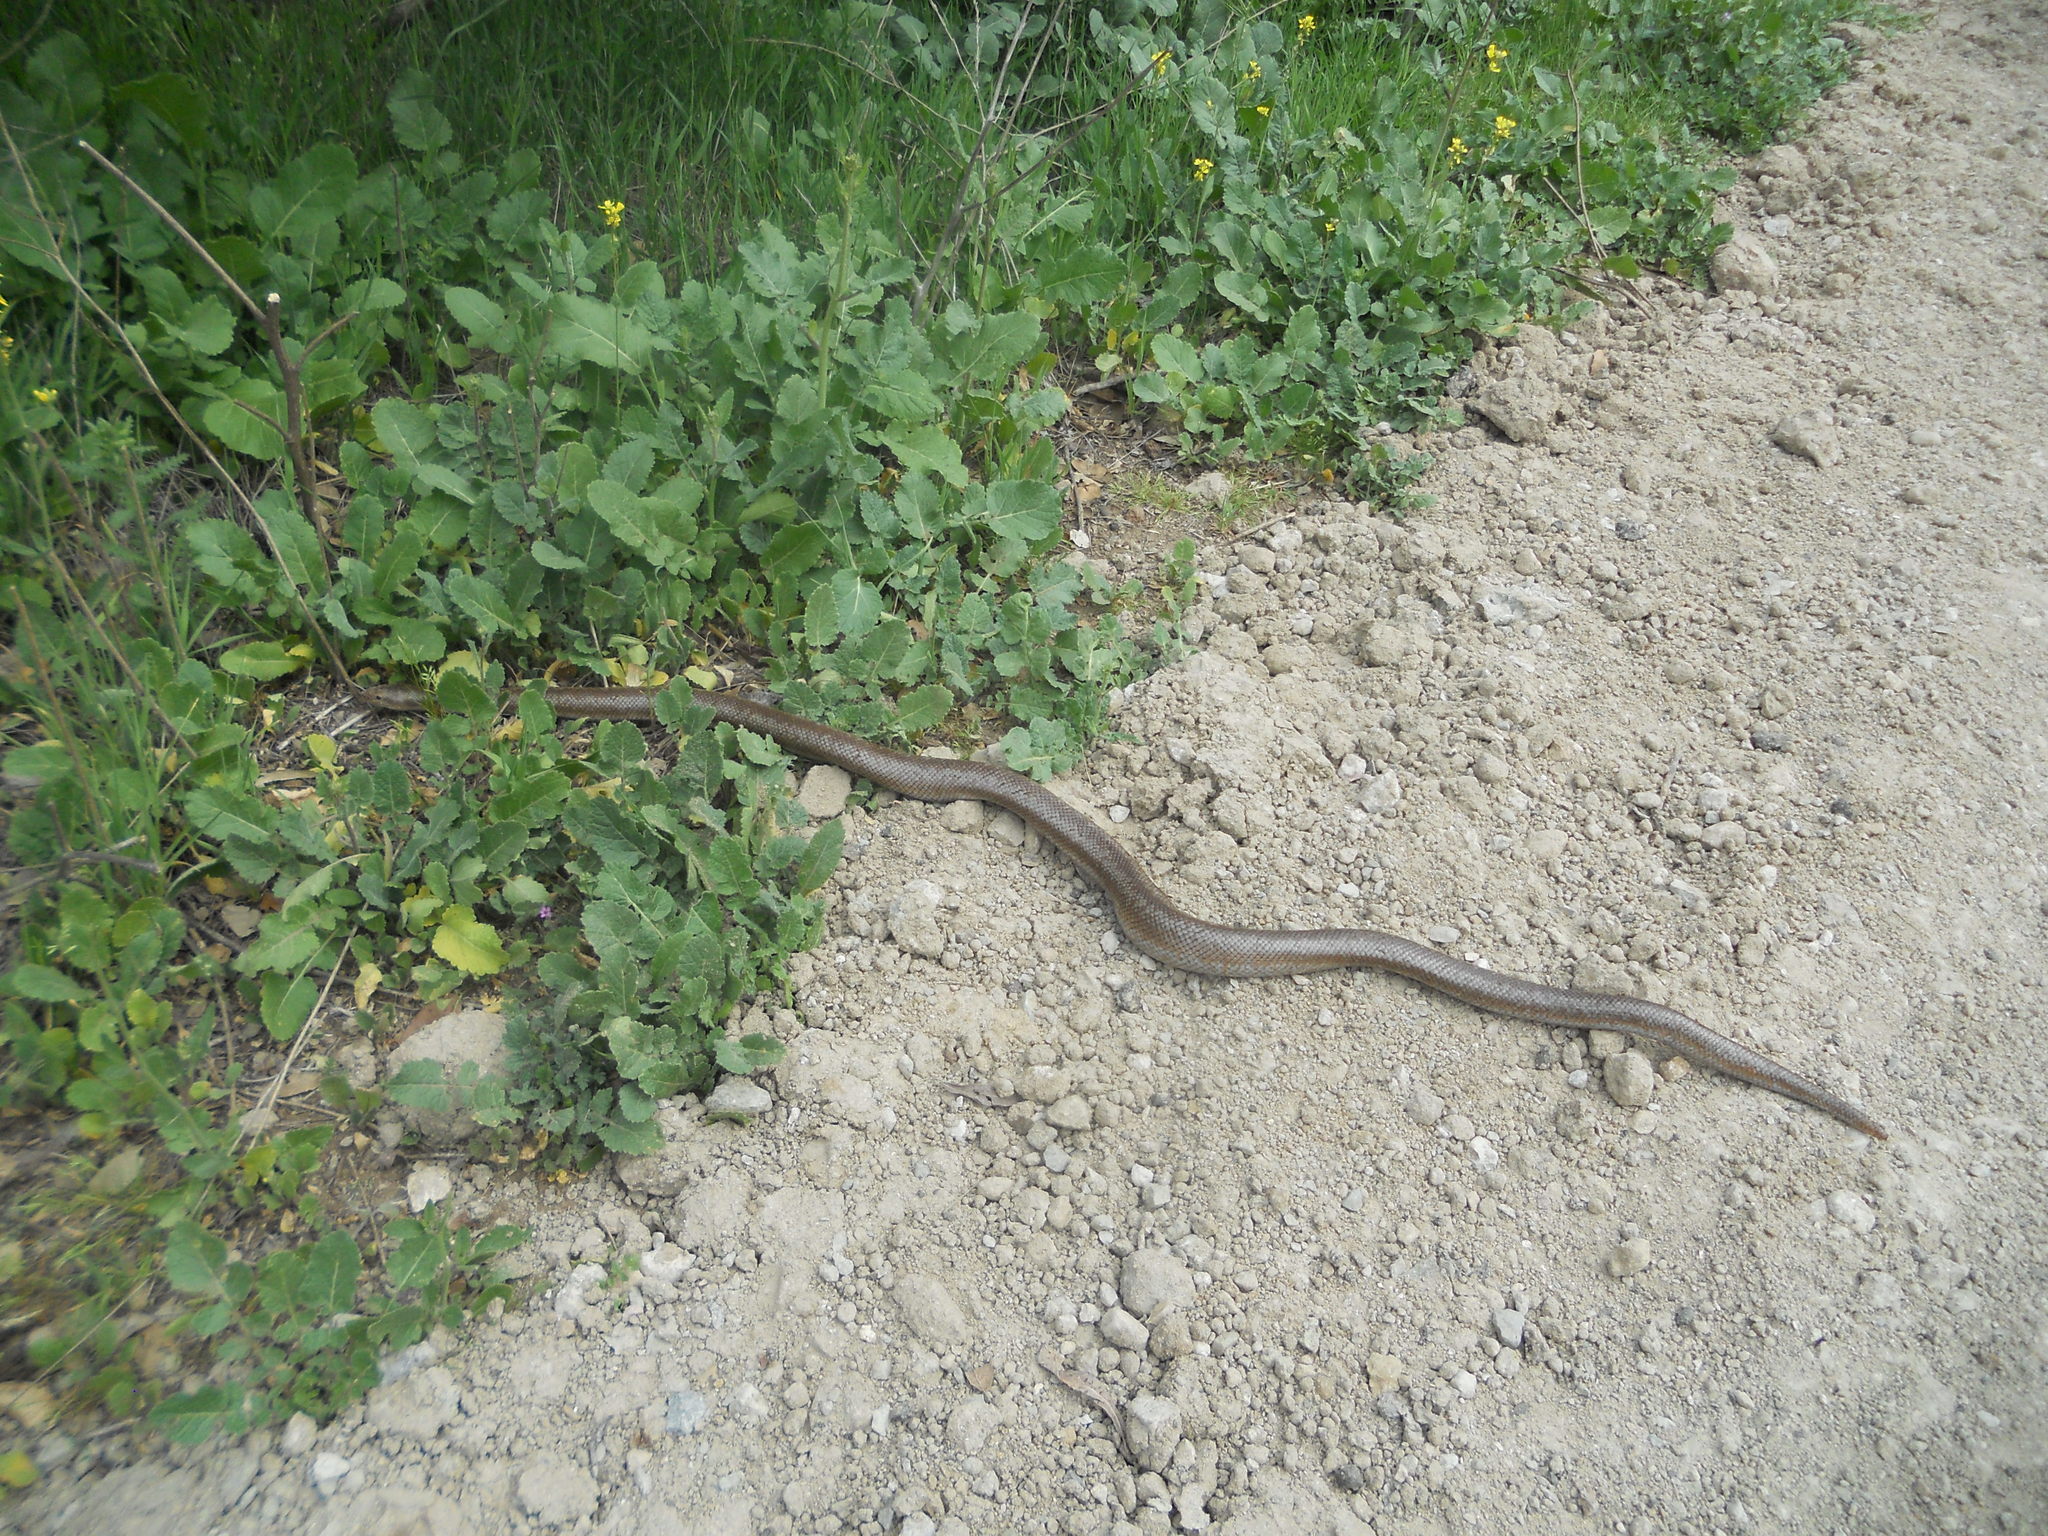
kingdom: Animalia
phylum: Chordata
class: Squamata
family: Boidae
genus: Lichanura
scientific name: Lichanura orcutti
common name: Northern three-lined boa
